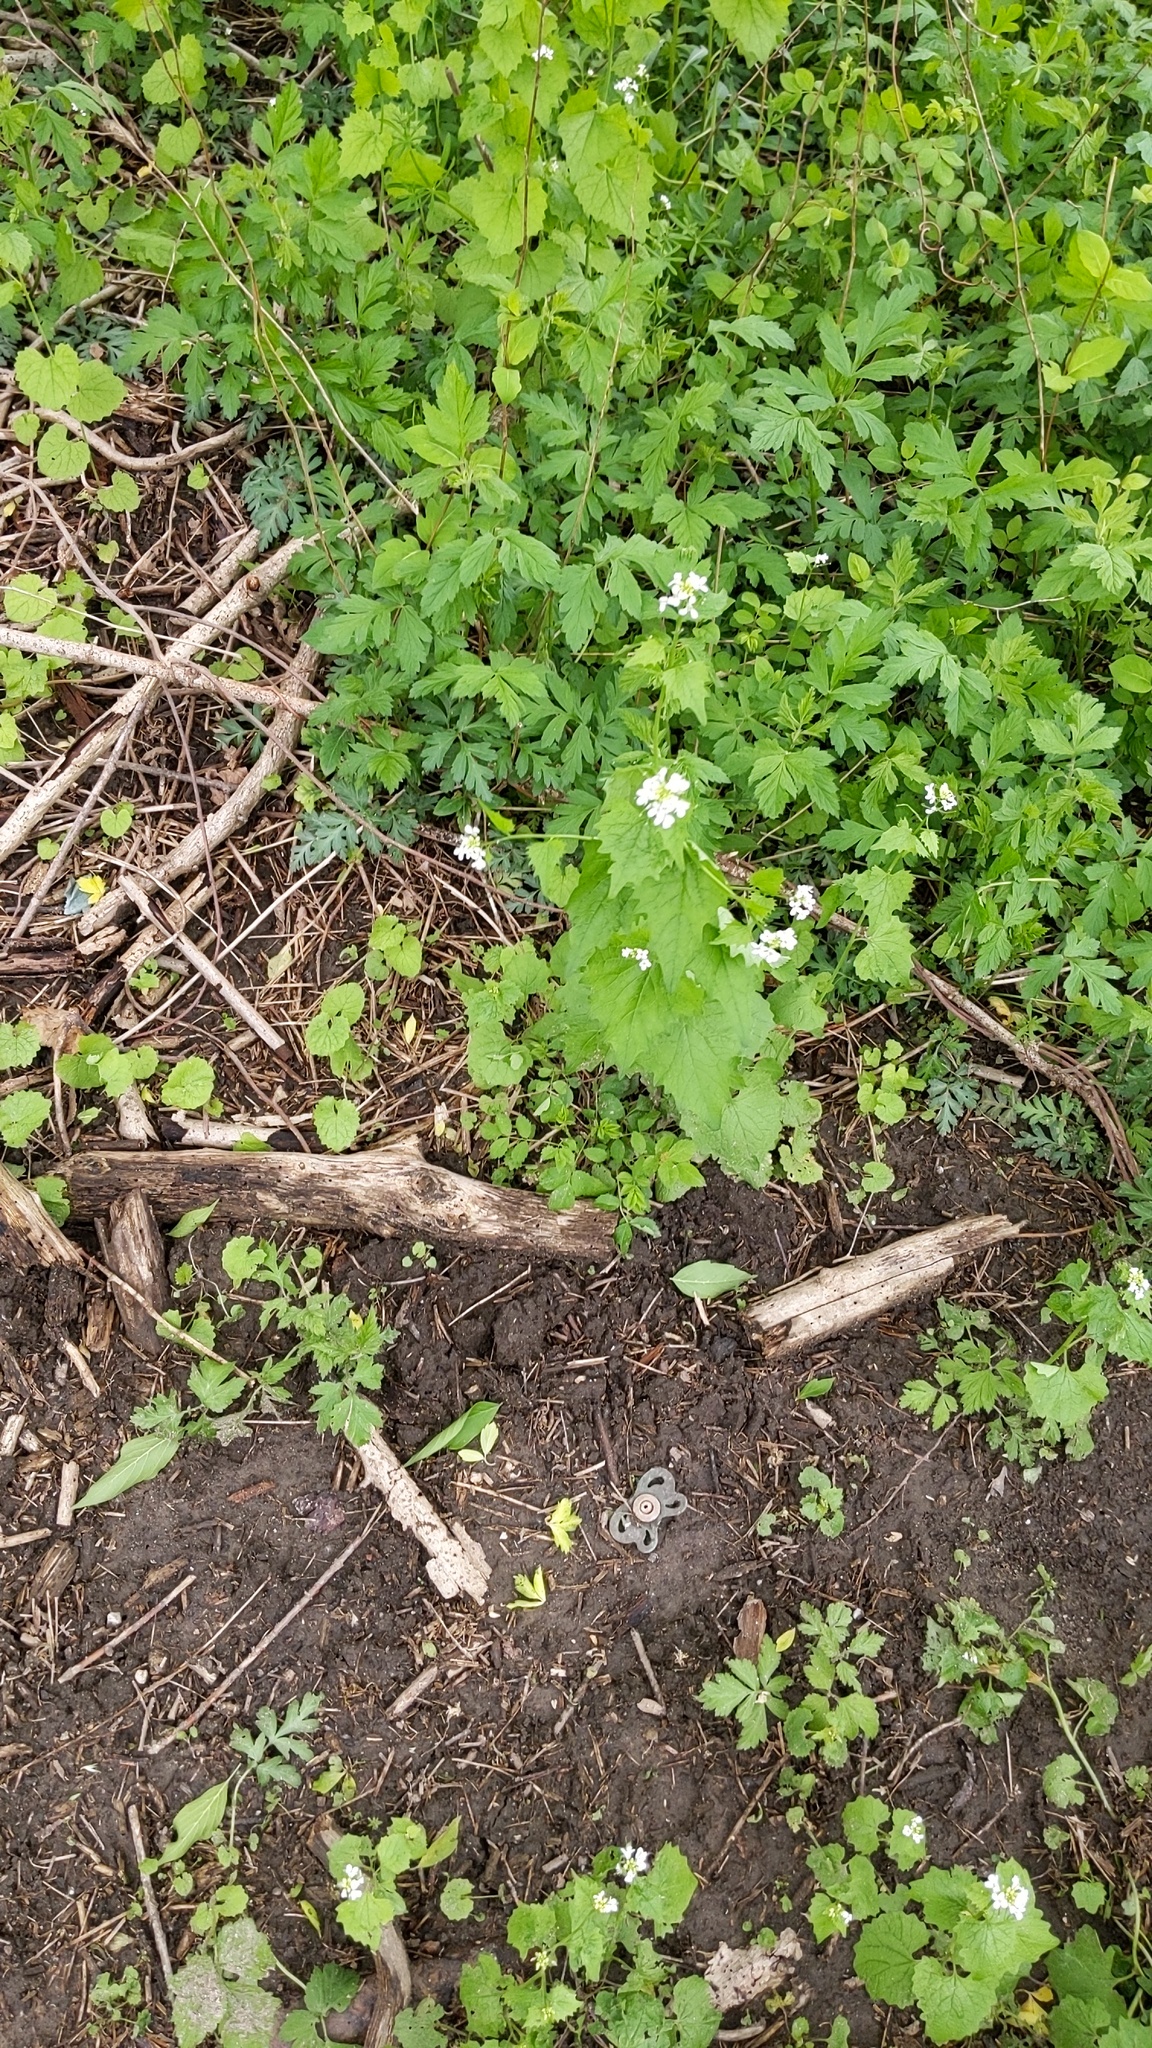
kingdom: Plantae
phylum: Tracheophyta
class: Magnoliopsida
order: Brassicales
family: Brassicaceae
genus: Alliaria
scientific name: Alliaria petiolata
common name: Garlic mustard
